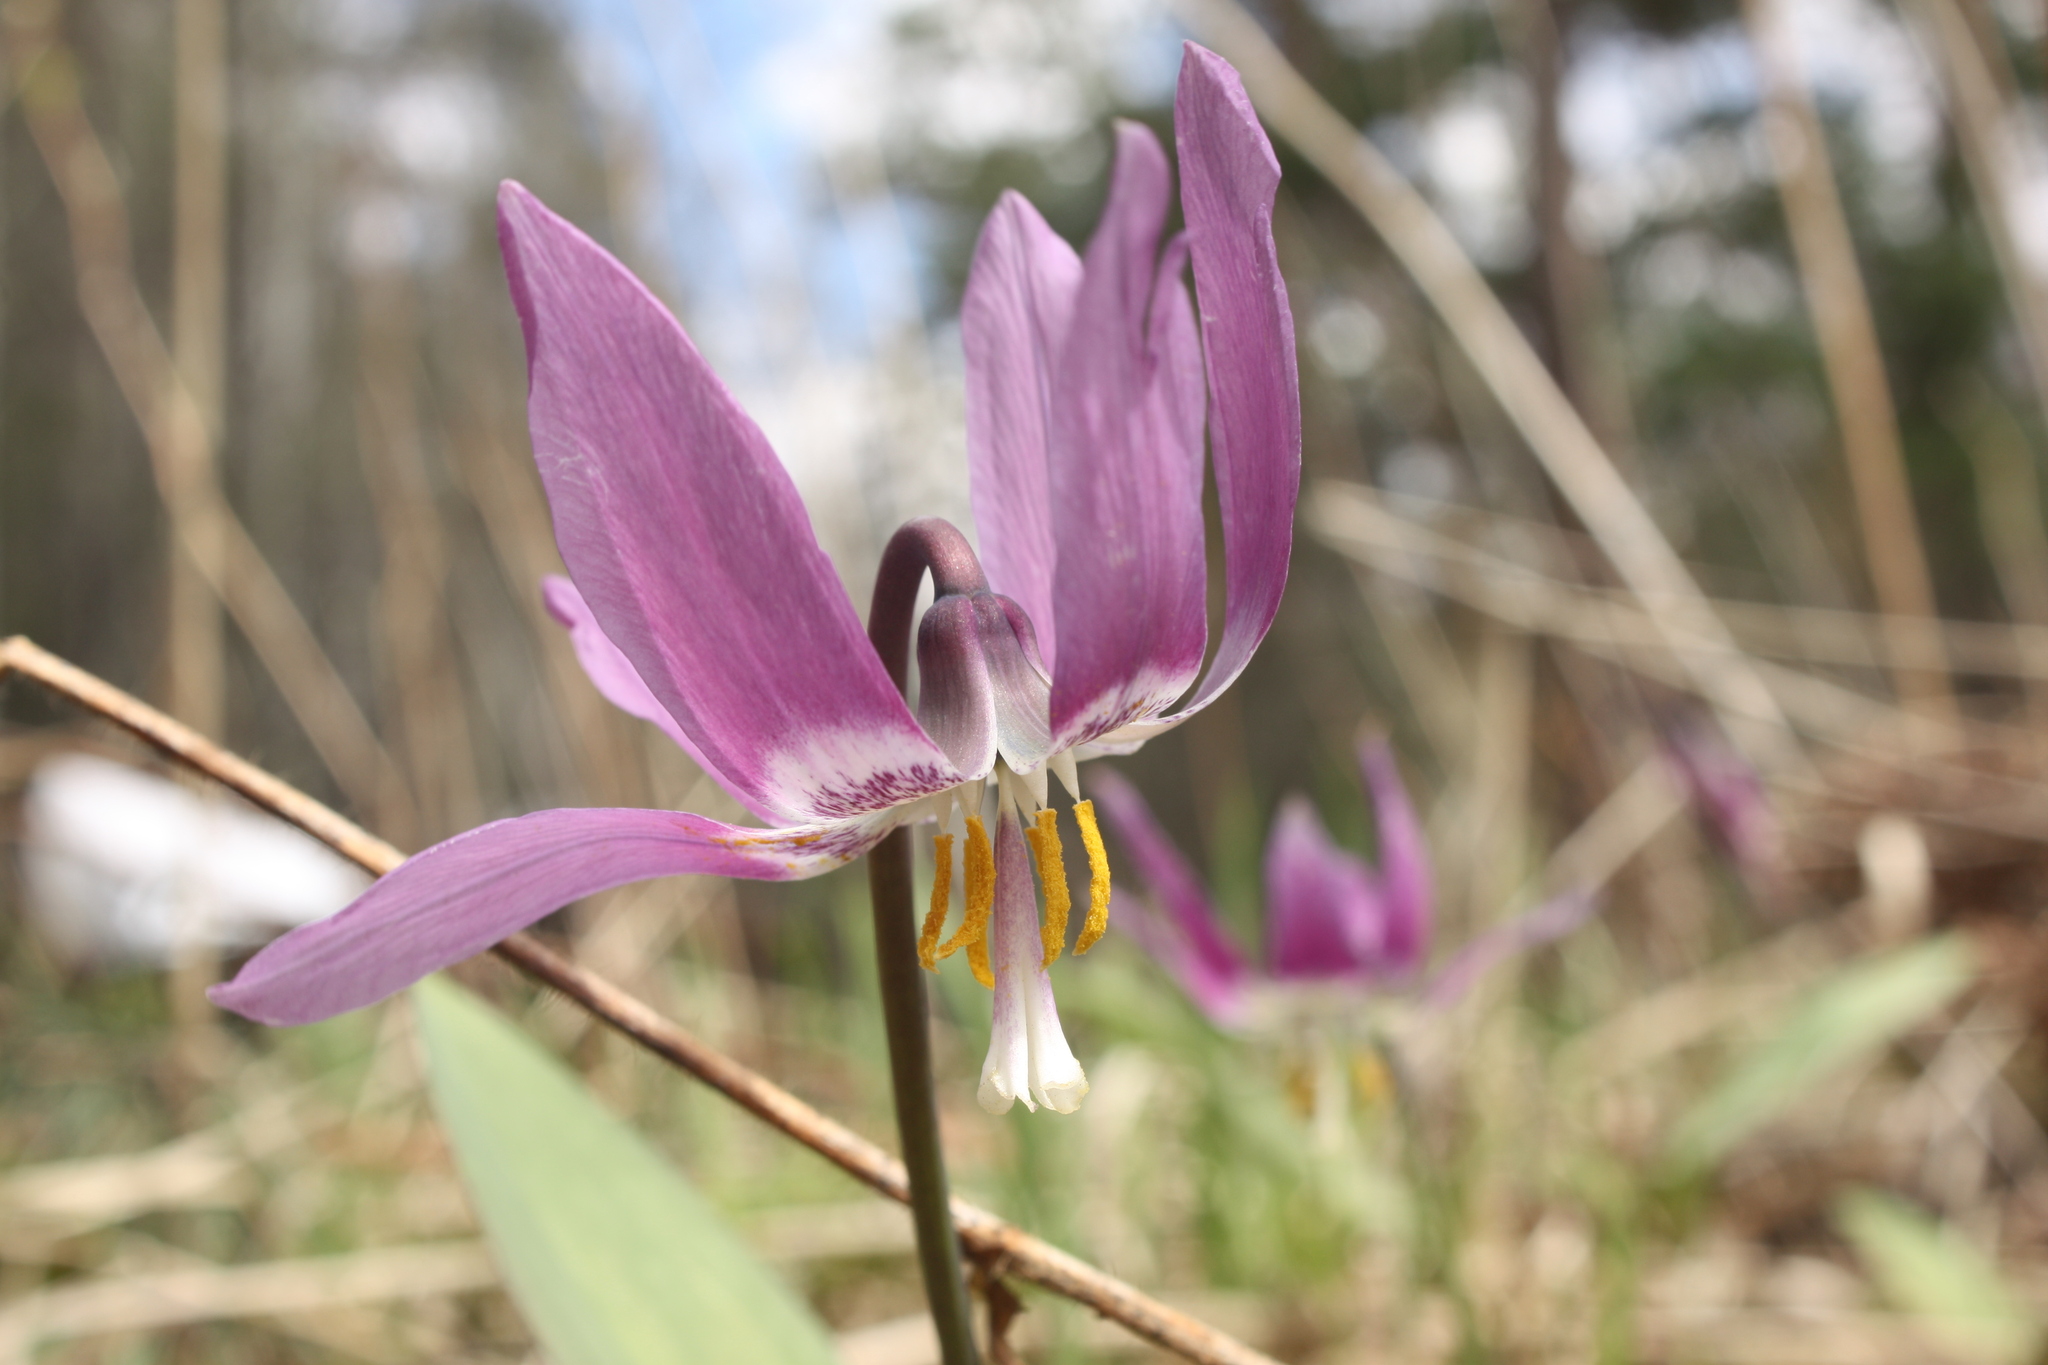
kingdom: Plantae
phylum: Tracheophyta
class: Liliopsida
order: Liliales
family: Liliaceae
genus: Erythronium
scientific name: Erythronium sibiricum
